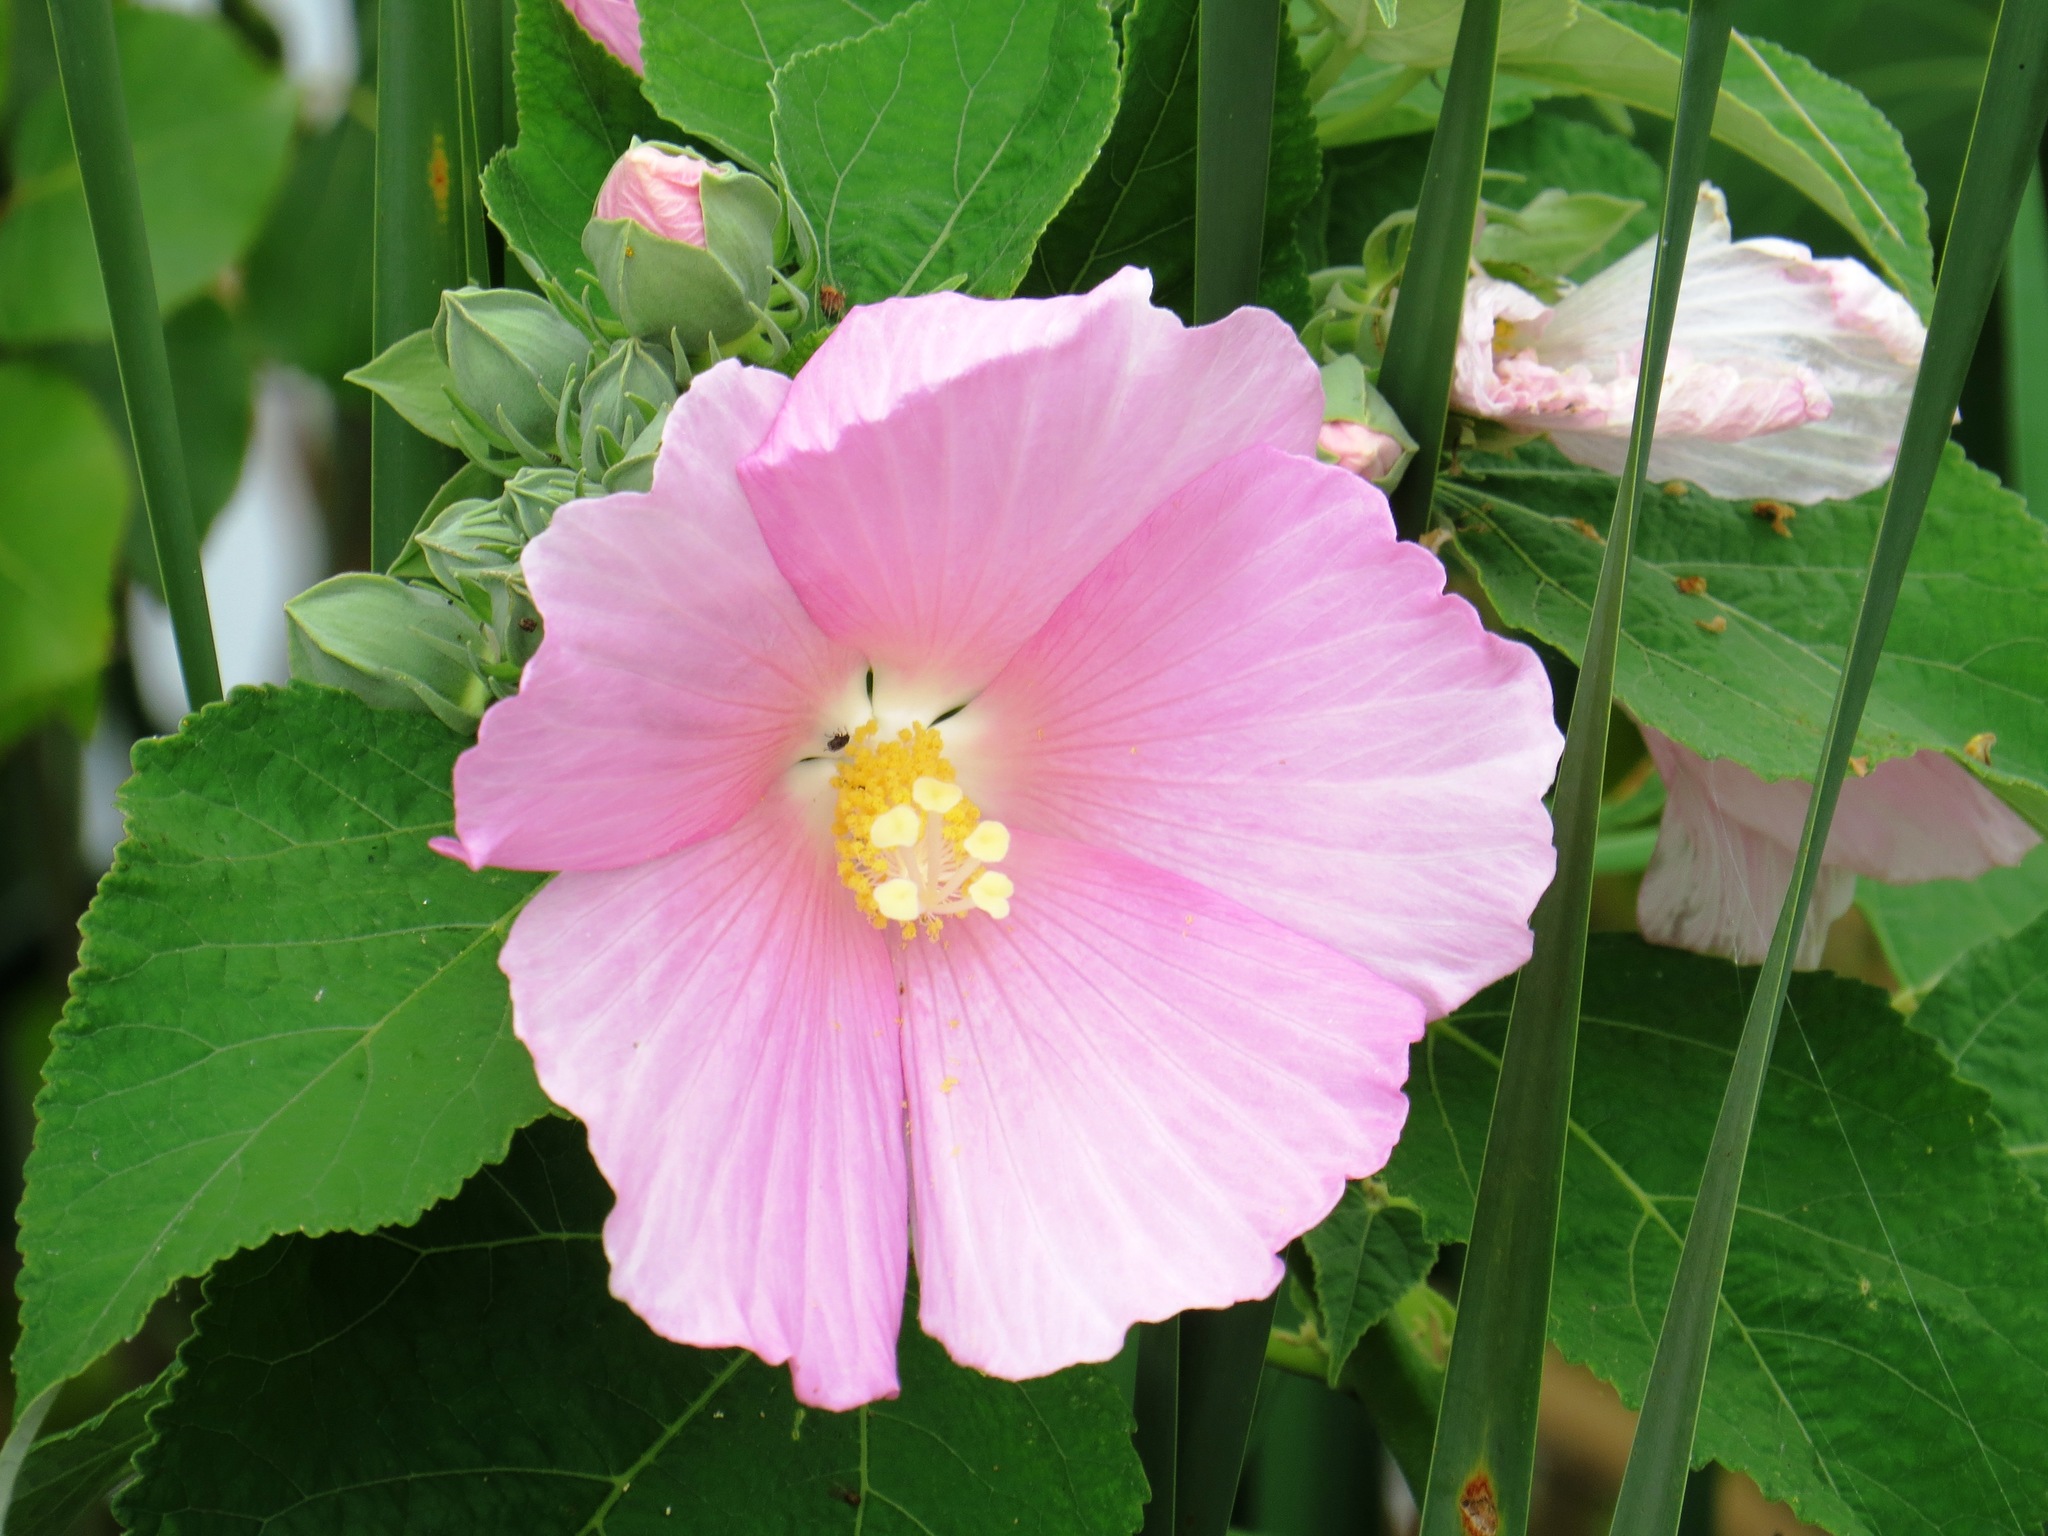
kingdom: Plantae
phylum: Tracheophyta
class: Magnoliopsida
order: Malvales
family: Malvaceae
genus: Hibiscus
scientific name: Hibiscus moscheutos
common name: Common rose-mallow
